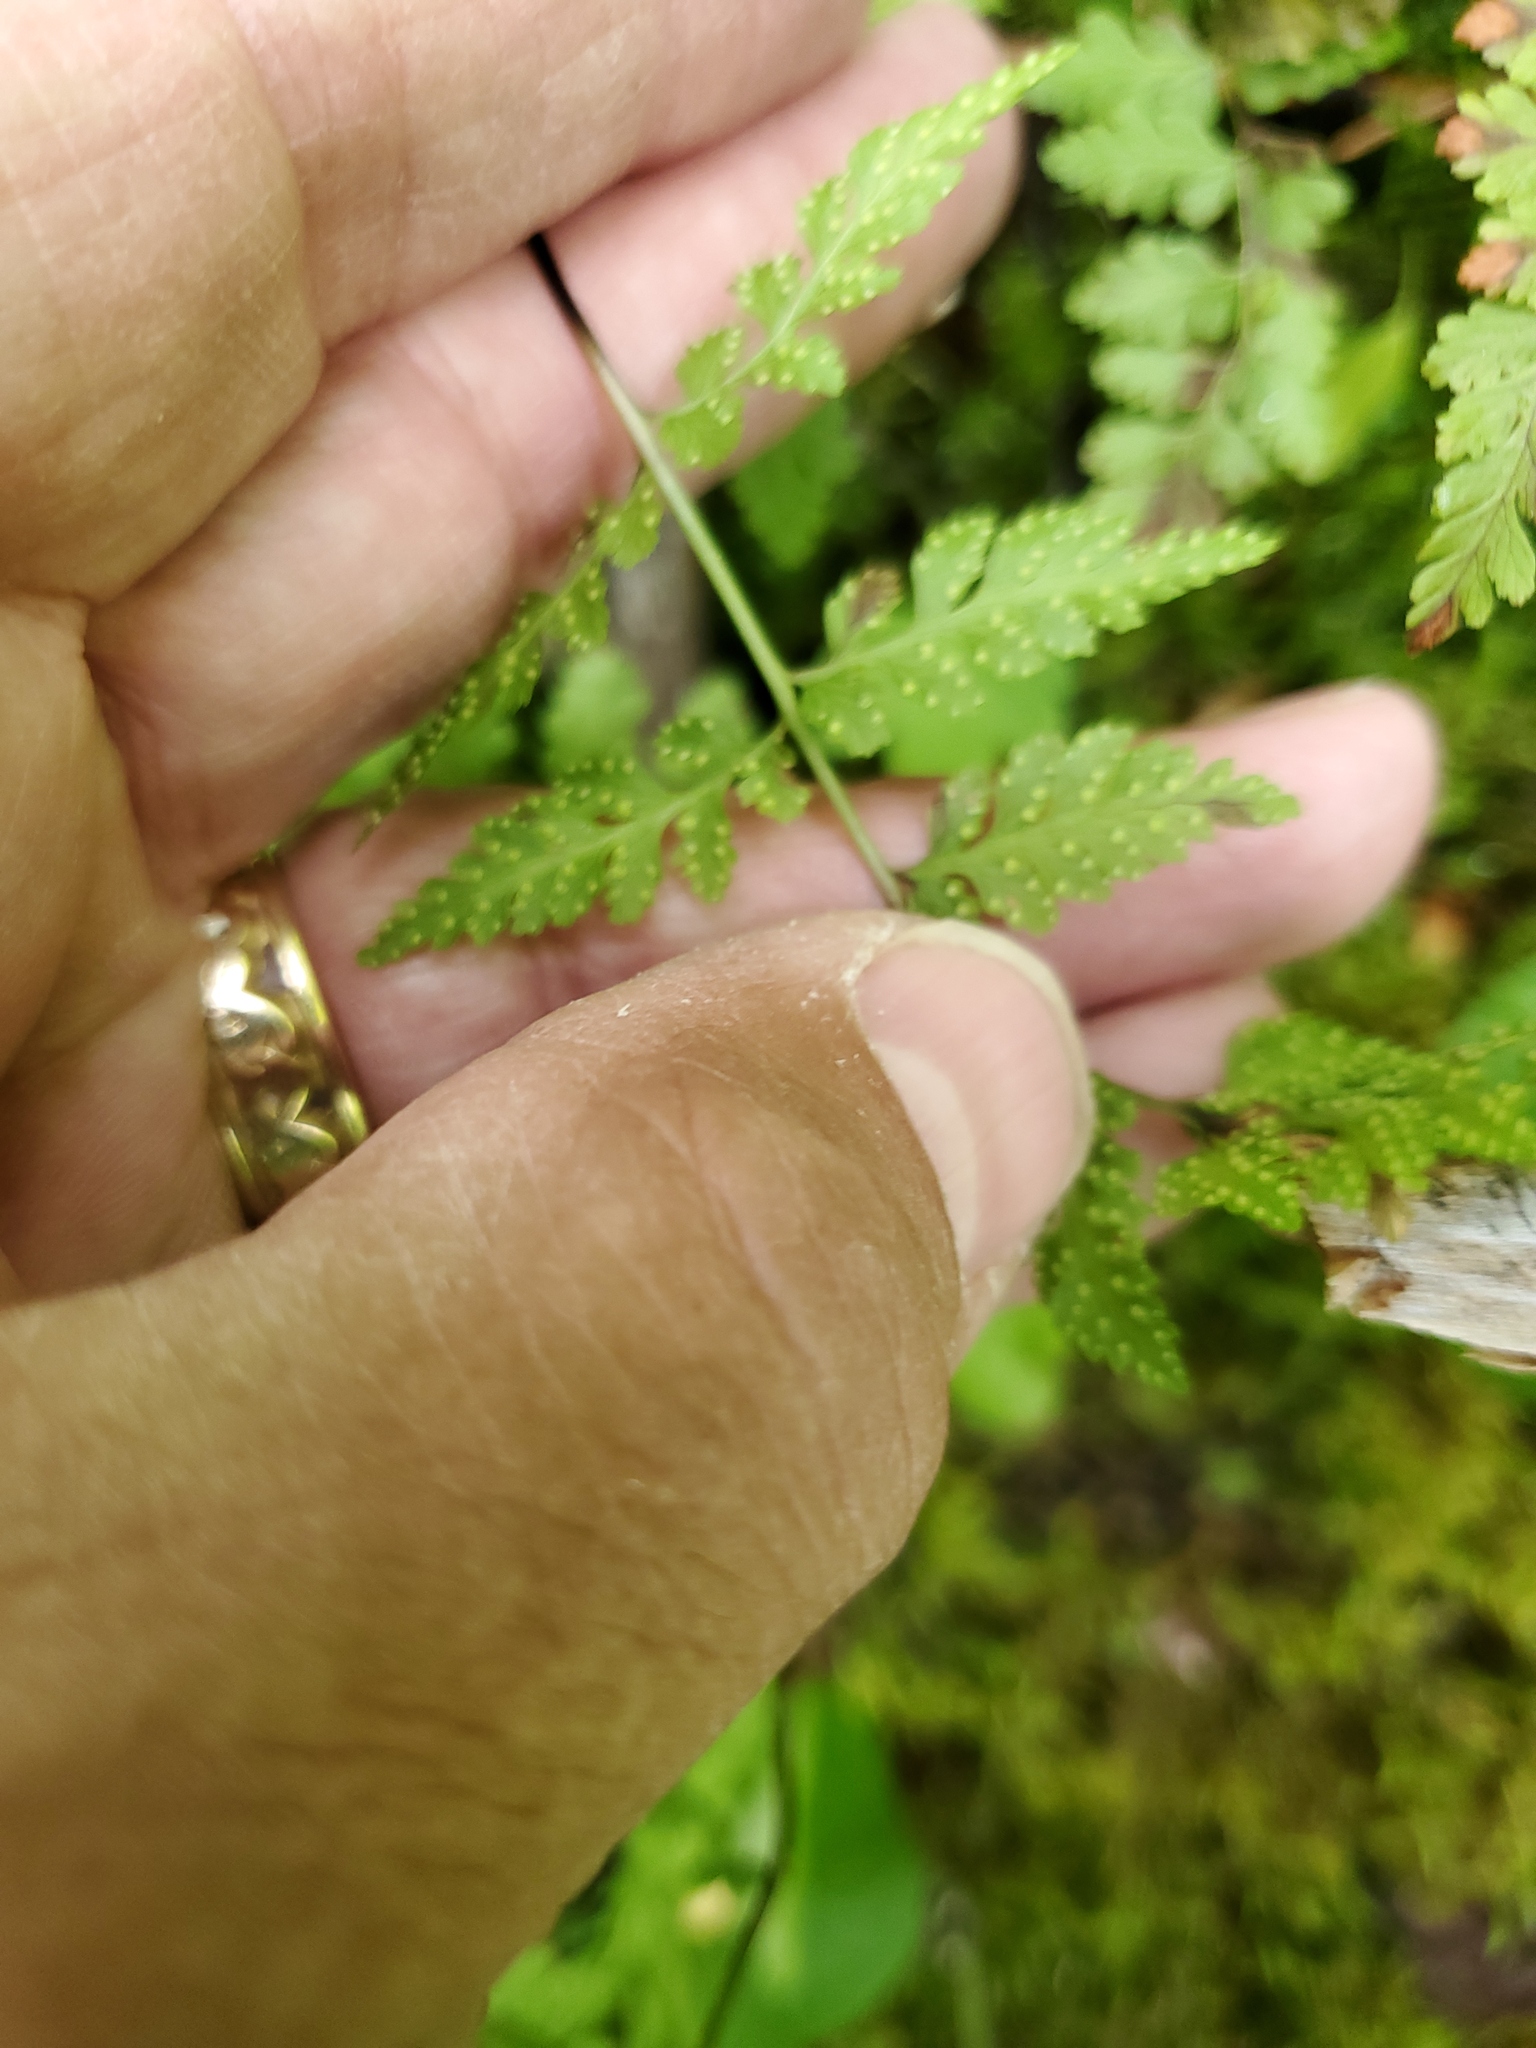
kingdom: Plantae
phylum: Tracheophyta
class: Polypodiopsida
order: Polypodiales
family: Cystopteridaceae
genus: Cystopteris
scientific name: Cystopteris fragilis
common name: Brittle bladder fern
